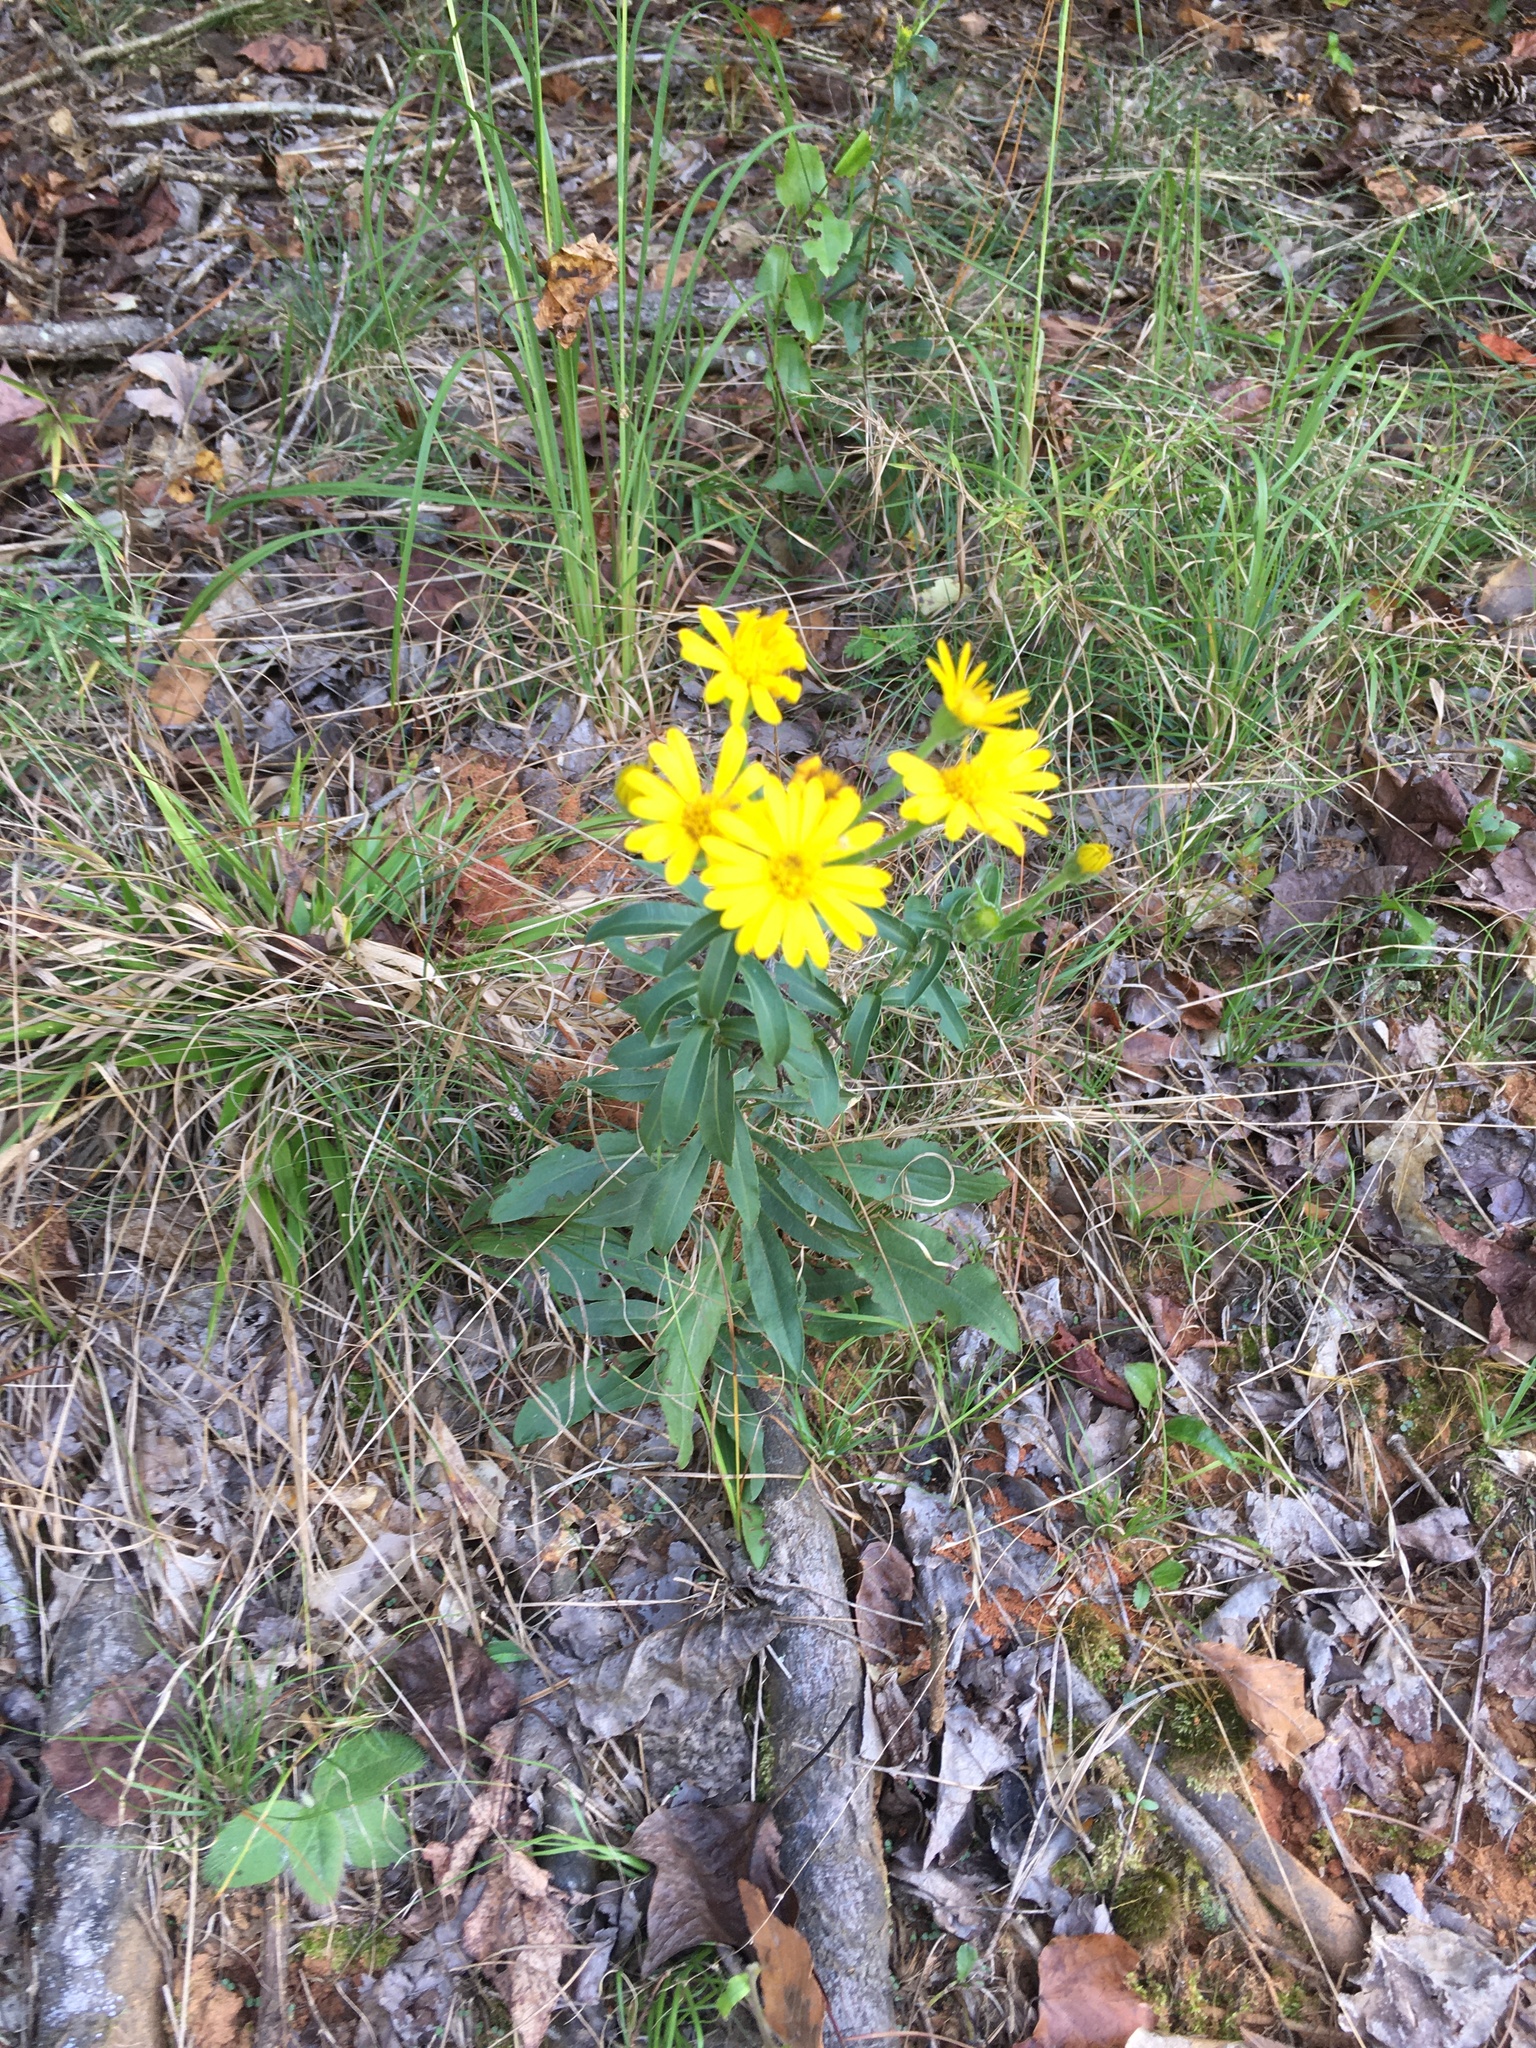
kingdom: Plantae
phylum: Tracheophyta
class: Magnoliopsida
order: Asterales
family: Asteraceae
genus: Chrysopsis
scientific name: Chrysopsis mariana
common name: Maryland golden-aster
